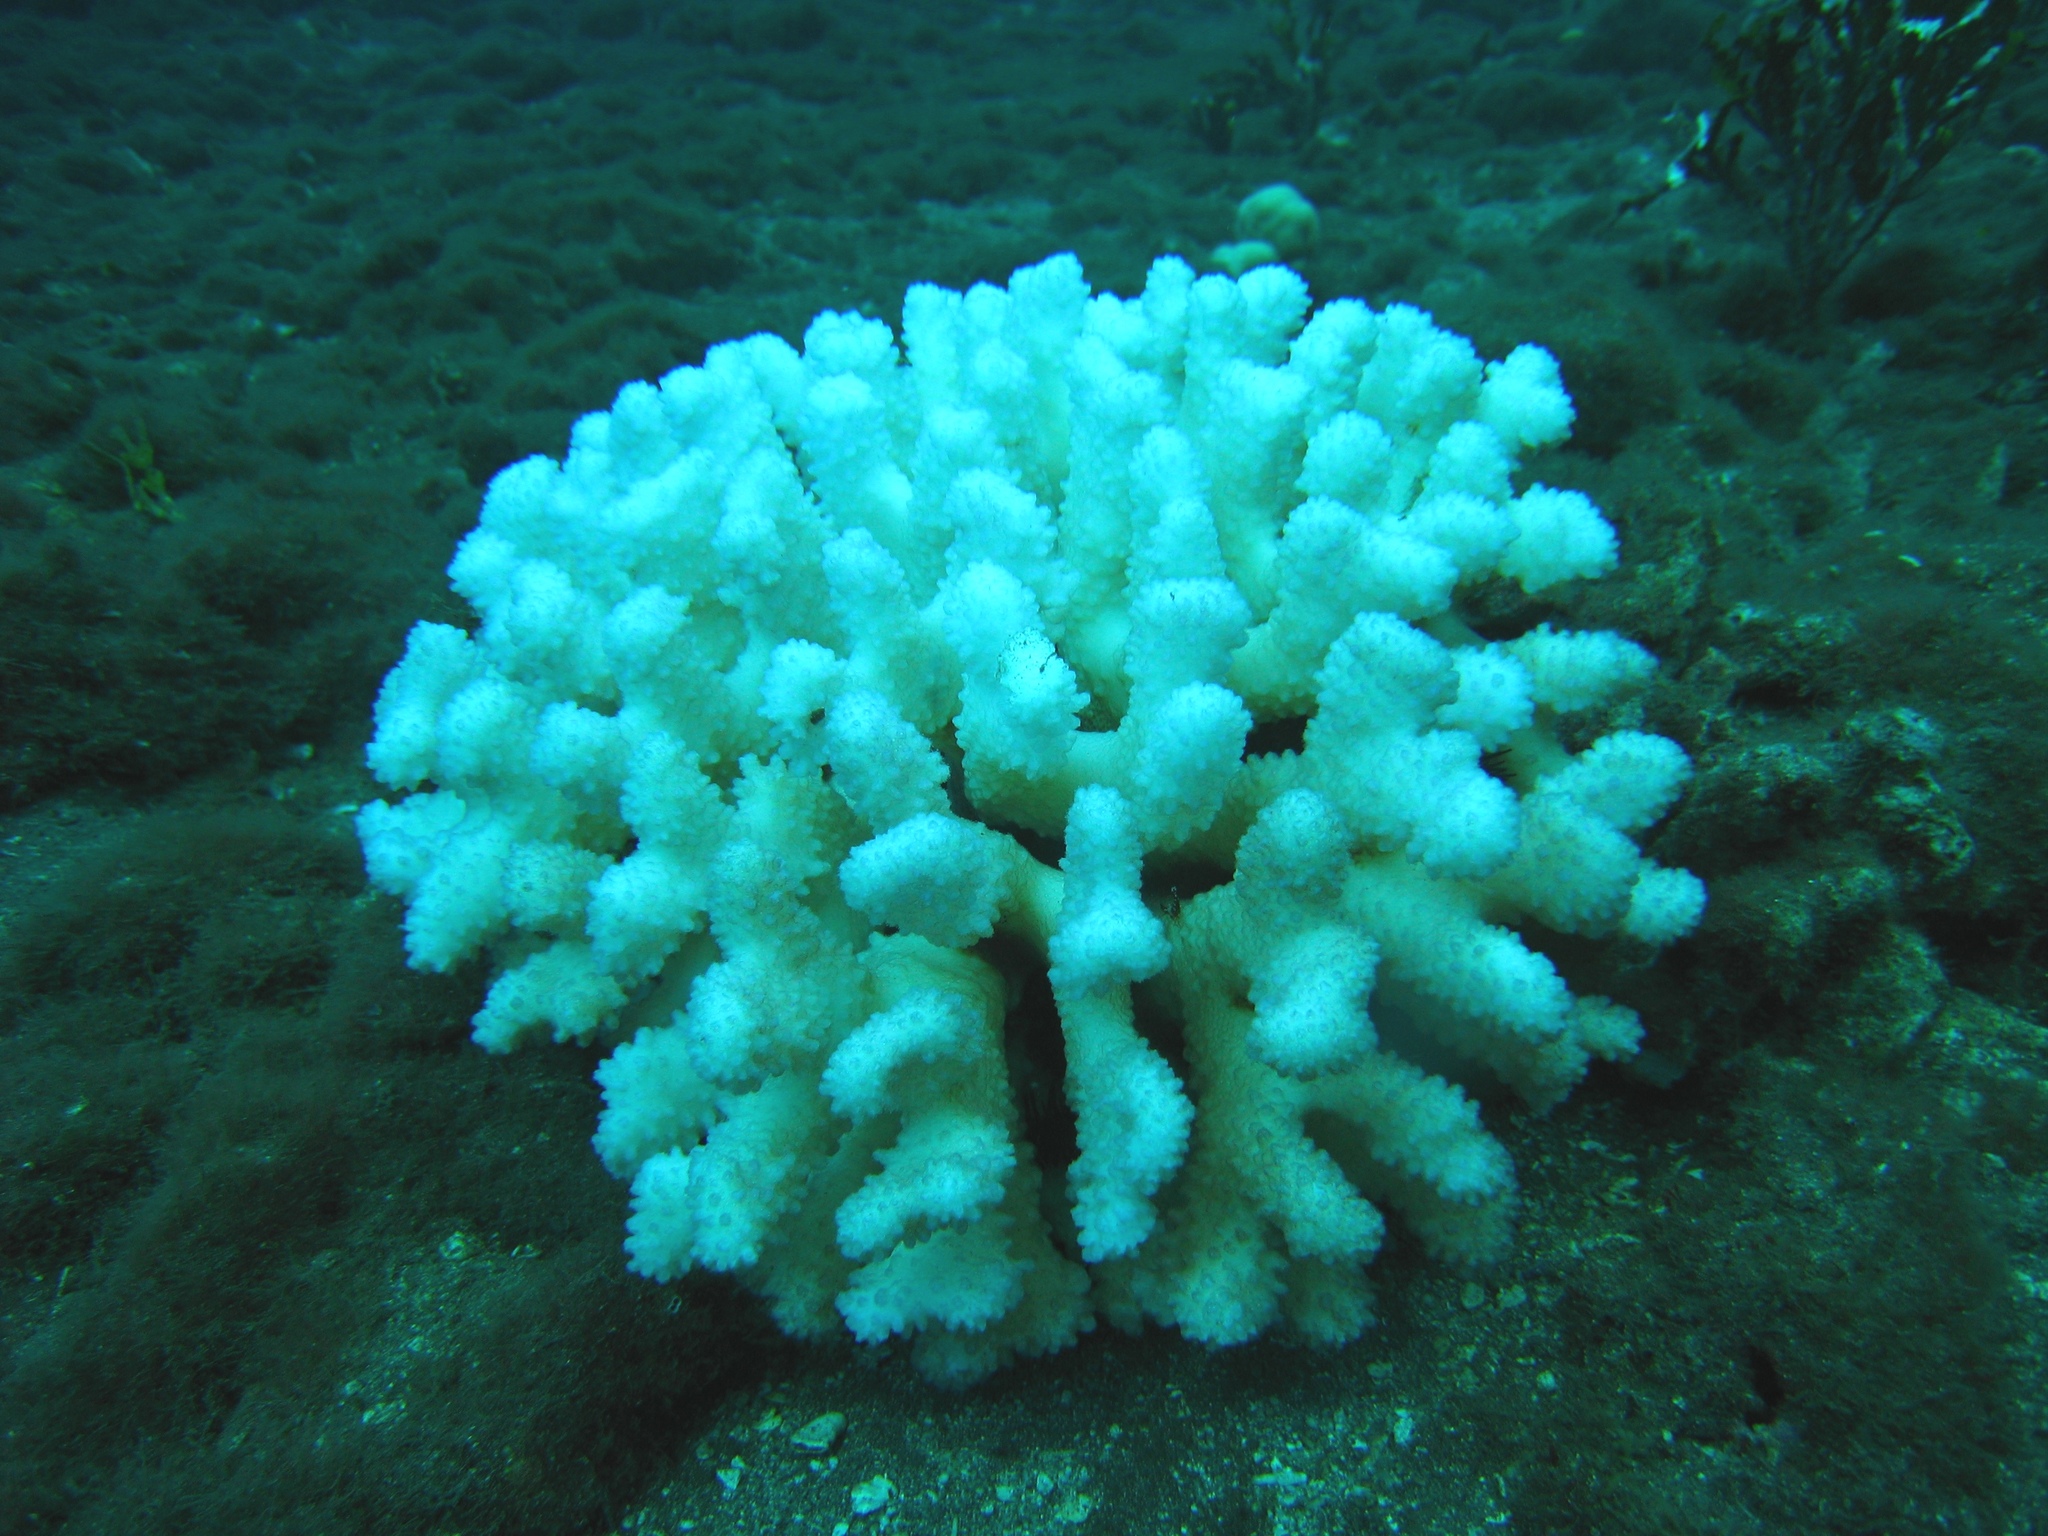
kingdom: Animalia
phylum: Cnidaria
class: Anthozoa
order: Scleractinia
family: Pocilloporidae
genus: Pocillopora
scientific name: Pocillopora ligulata
